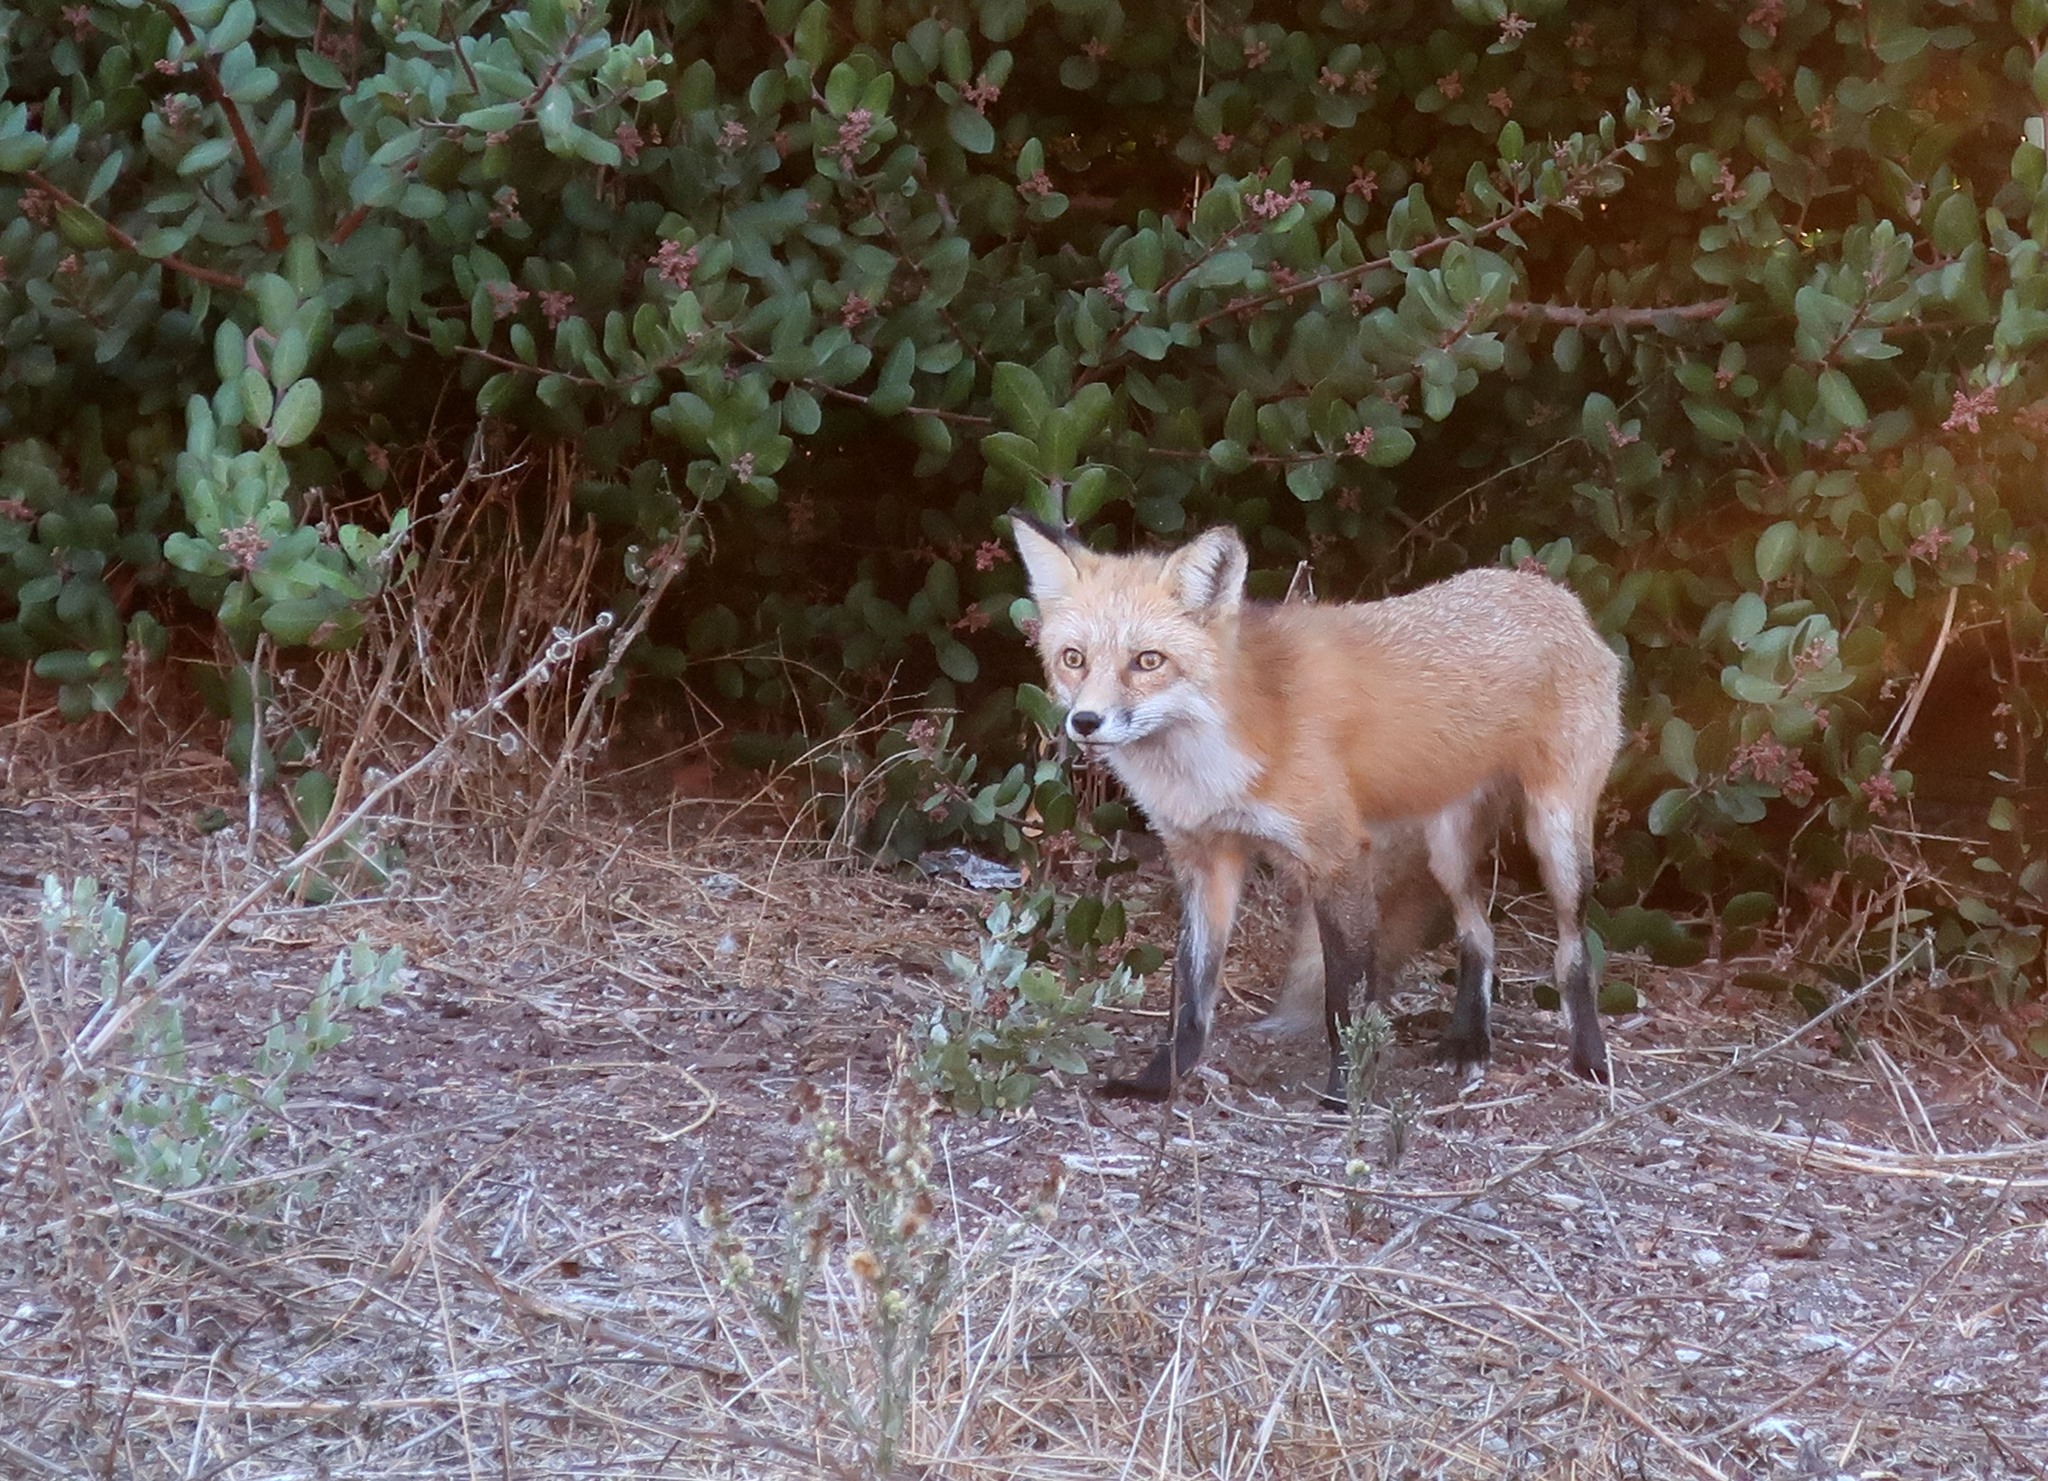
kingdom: Animalia
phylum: Chordata
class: Mammalia
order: Carnivora
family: Canidae
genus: Vulpes
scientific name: Vulpes vulpes
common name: Red fox
